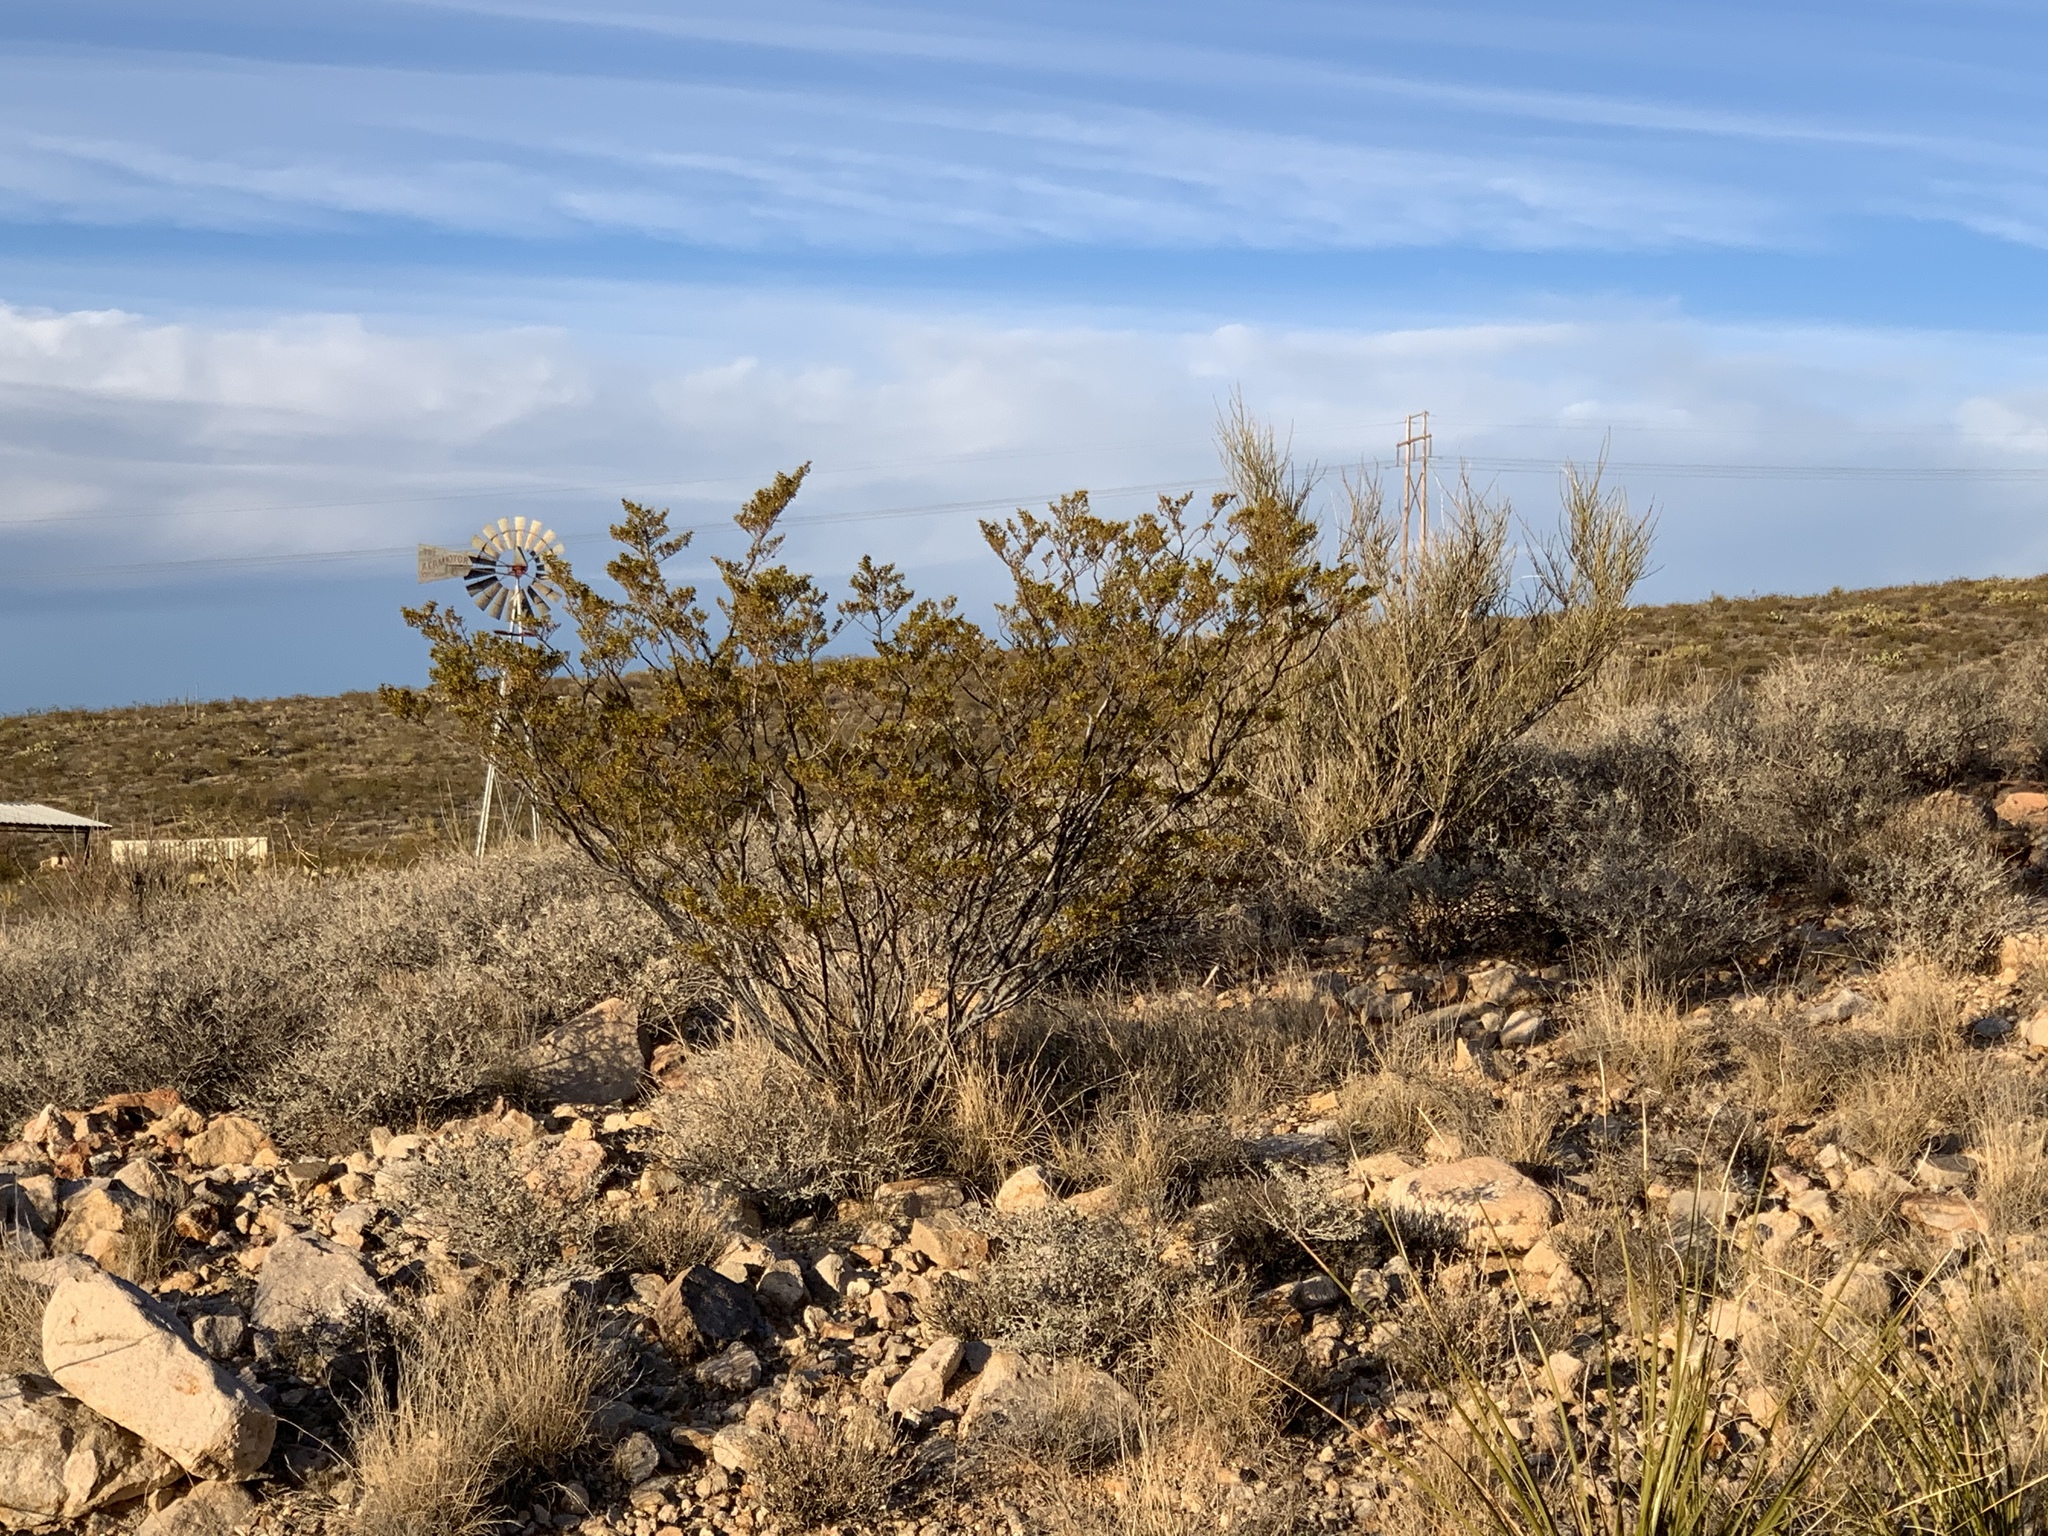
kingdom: Plantae
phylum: Tracheophyta
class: Magnoliopsida
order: Zygophyllales
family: Zygophyllaceae
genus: Larrea
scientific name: Larrea tridentata
